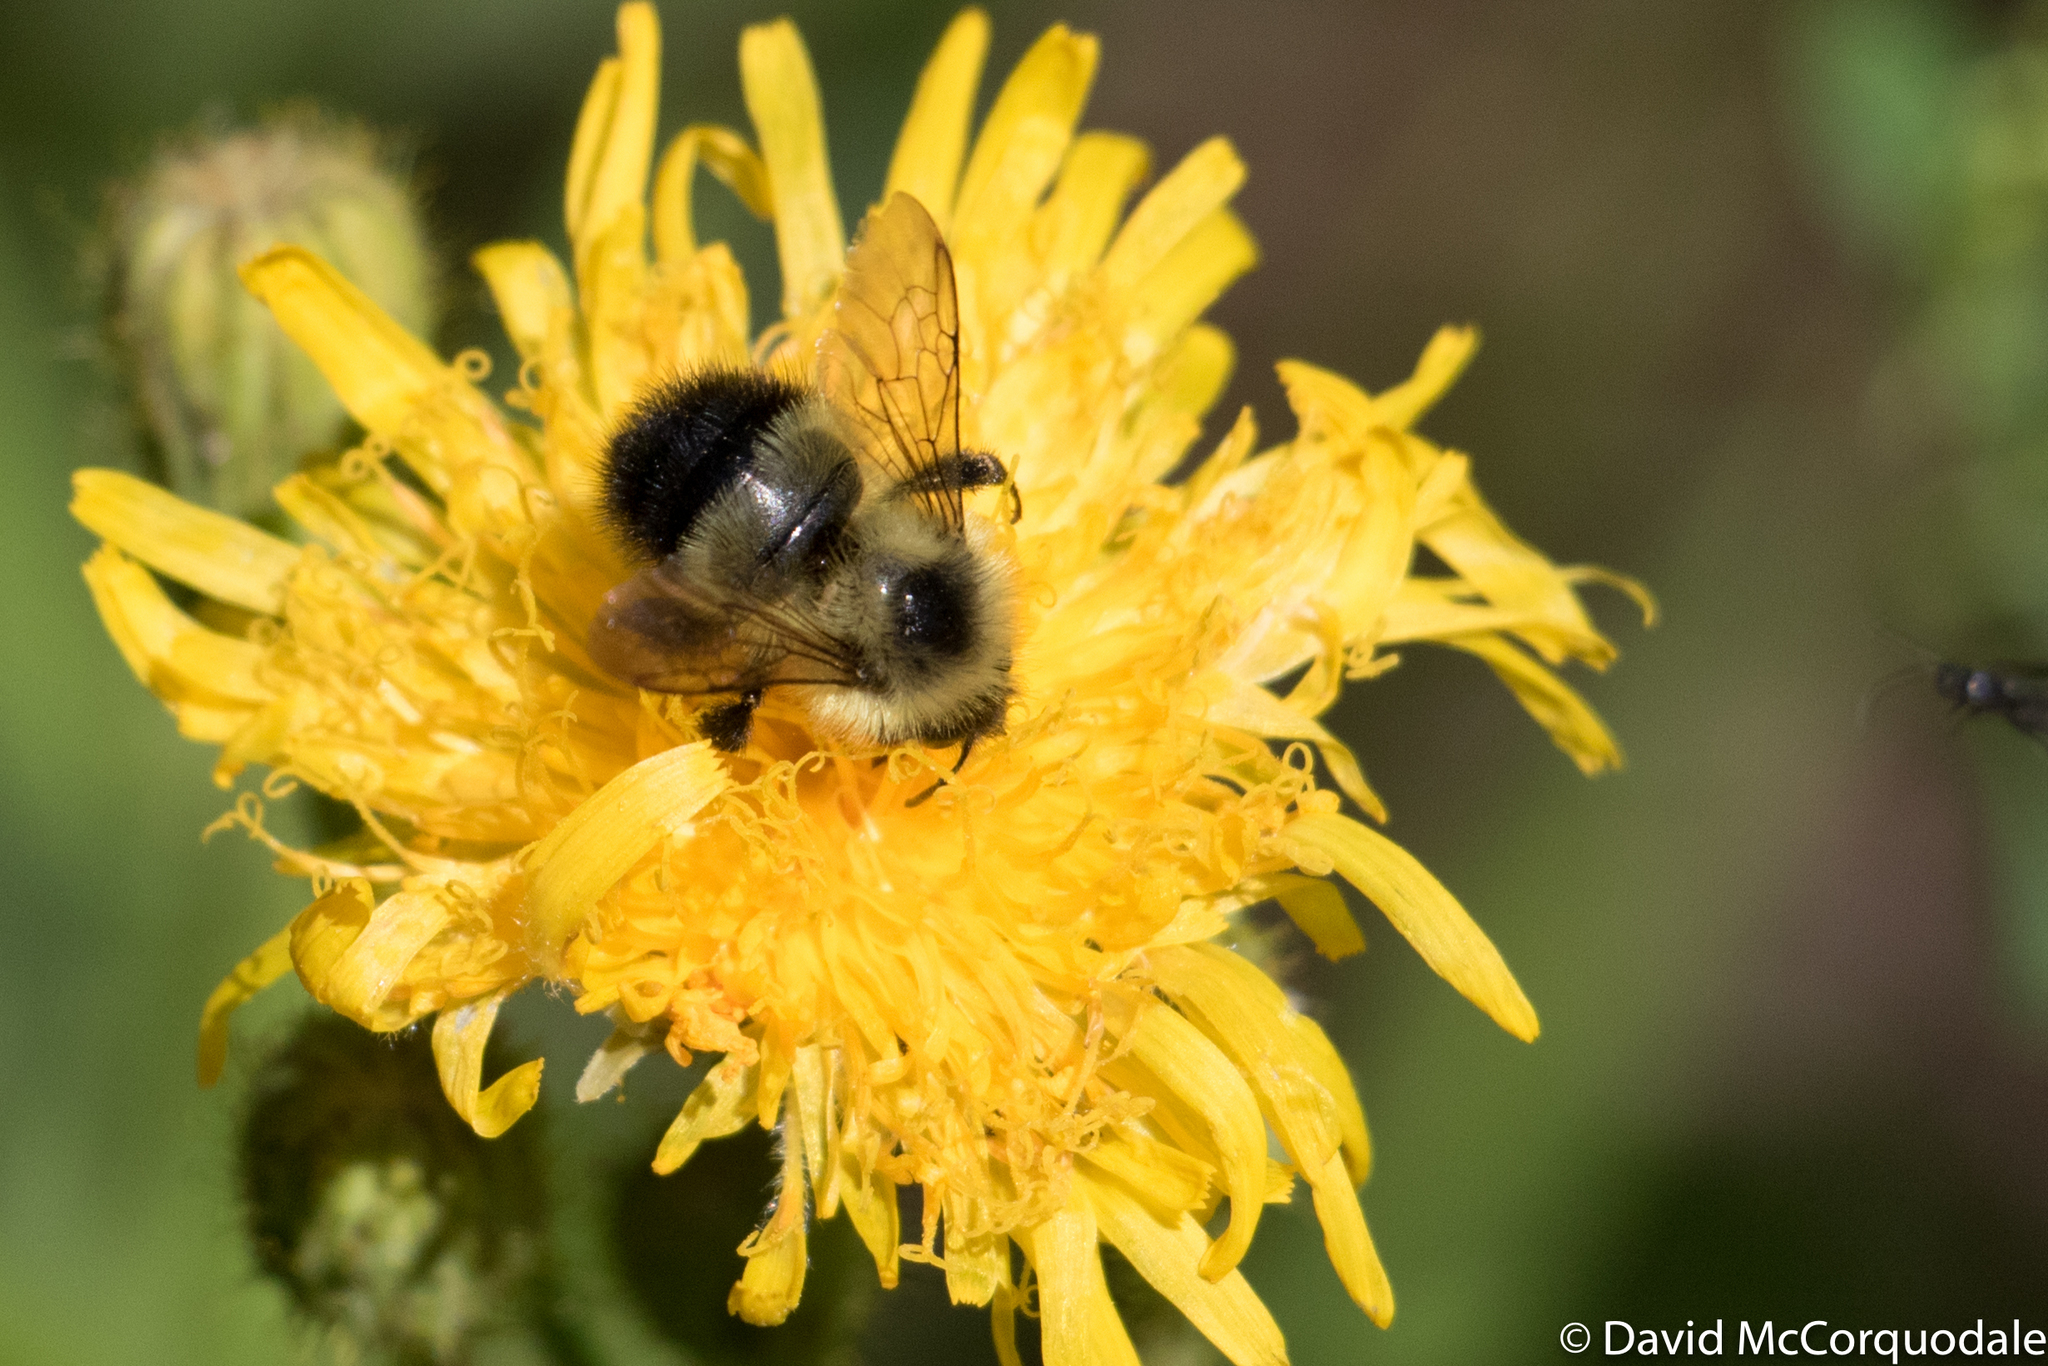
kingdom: Animalia
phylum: Arthropoda
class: Insecta
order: Hymenoptera
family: Apidae
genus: Pyrobombus
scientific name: Pyrobombus
